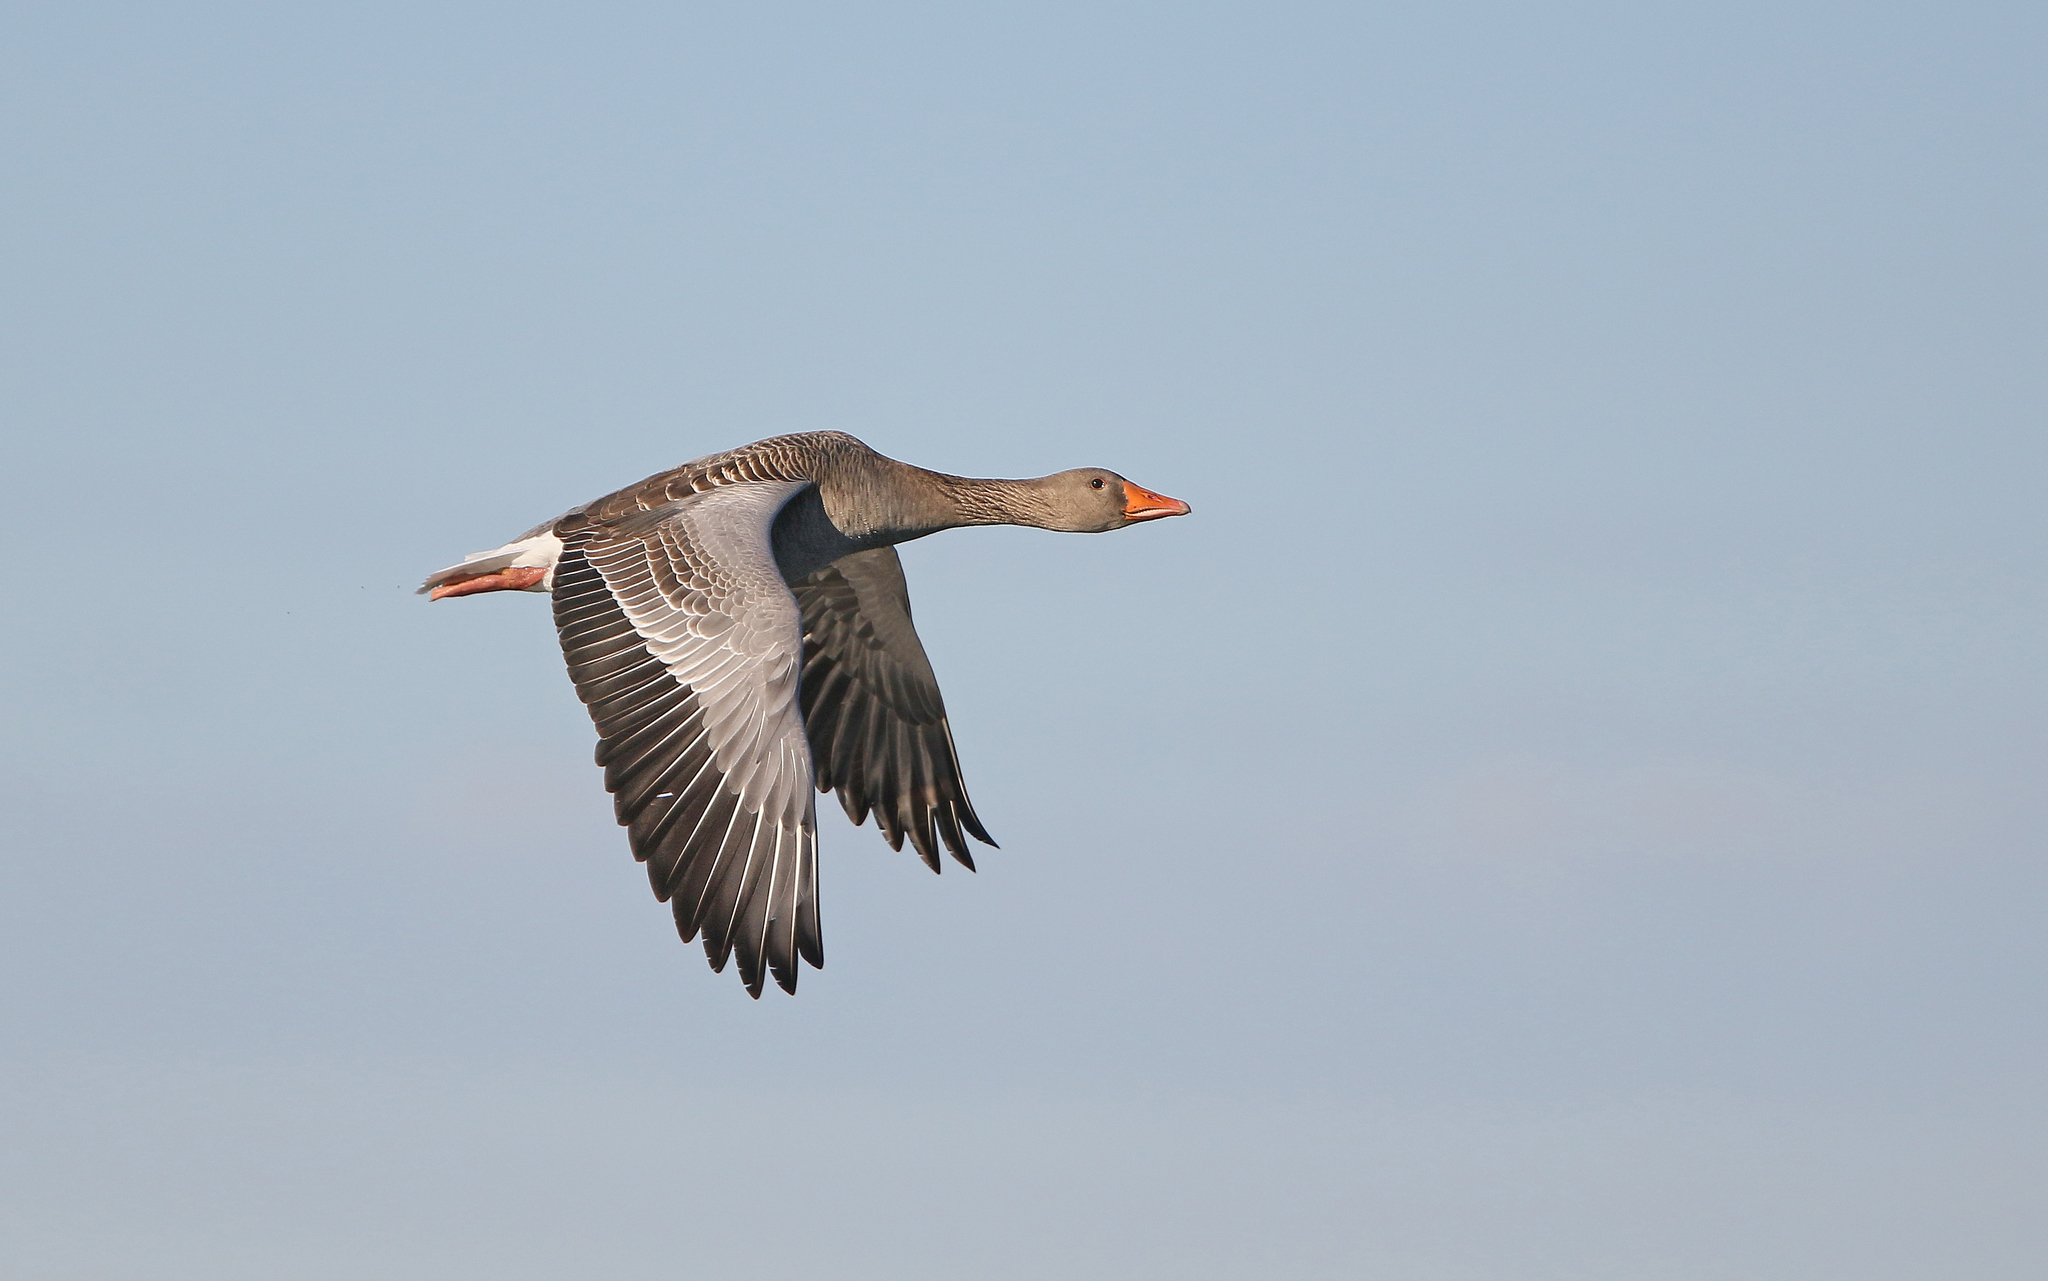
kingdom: Animalia
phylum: Chordata
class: Aves
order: Anseriformes
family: Anatidae
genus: Anser
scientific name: Anser anser
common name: Greylag goose
